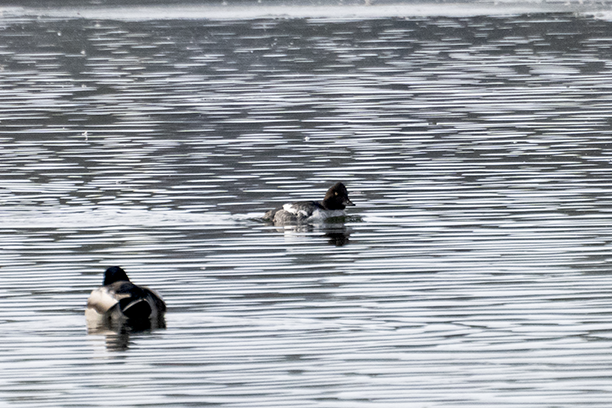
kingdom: Animalia
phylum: Chordata
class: Aves
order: Anseriformes
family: Anatidae
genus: Bucephala
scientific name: Bucephala clangula
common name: Common goldeneye
